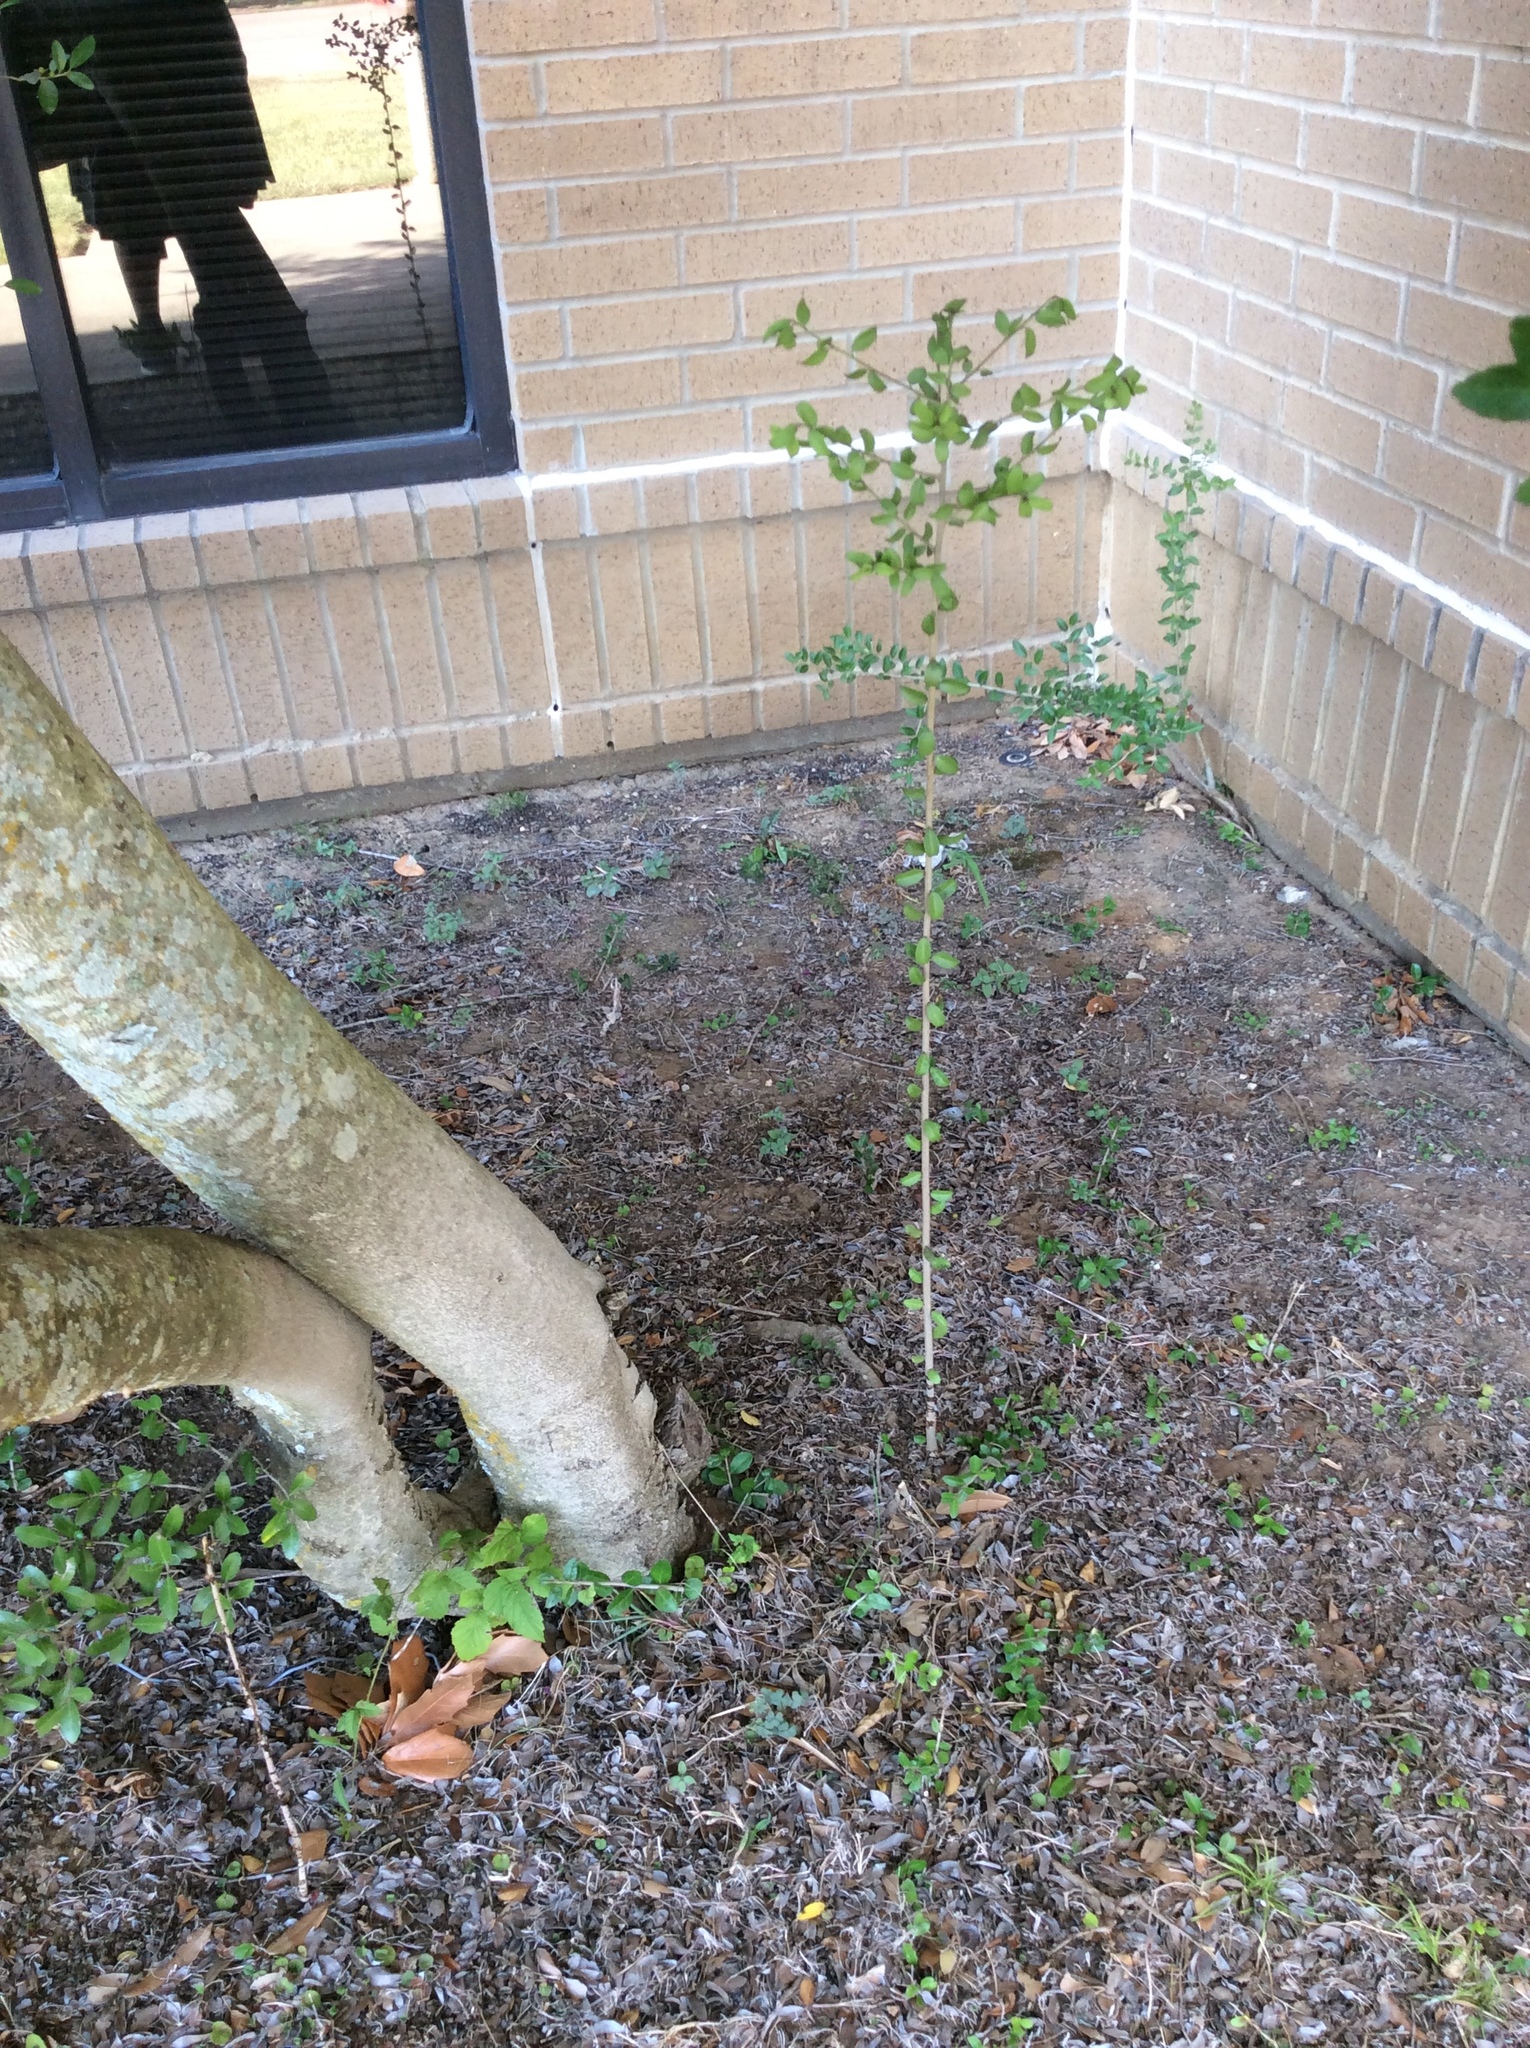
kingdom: Plantae
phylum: Tracheophyta
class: Magnoliopsida
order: Aquifoliales
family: Aquifoliaceae
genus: Ilex
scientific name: Ilex vomitoria
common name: Yaupon holly
